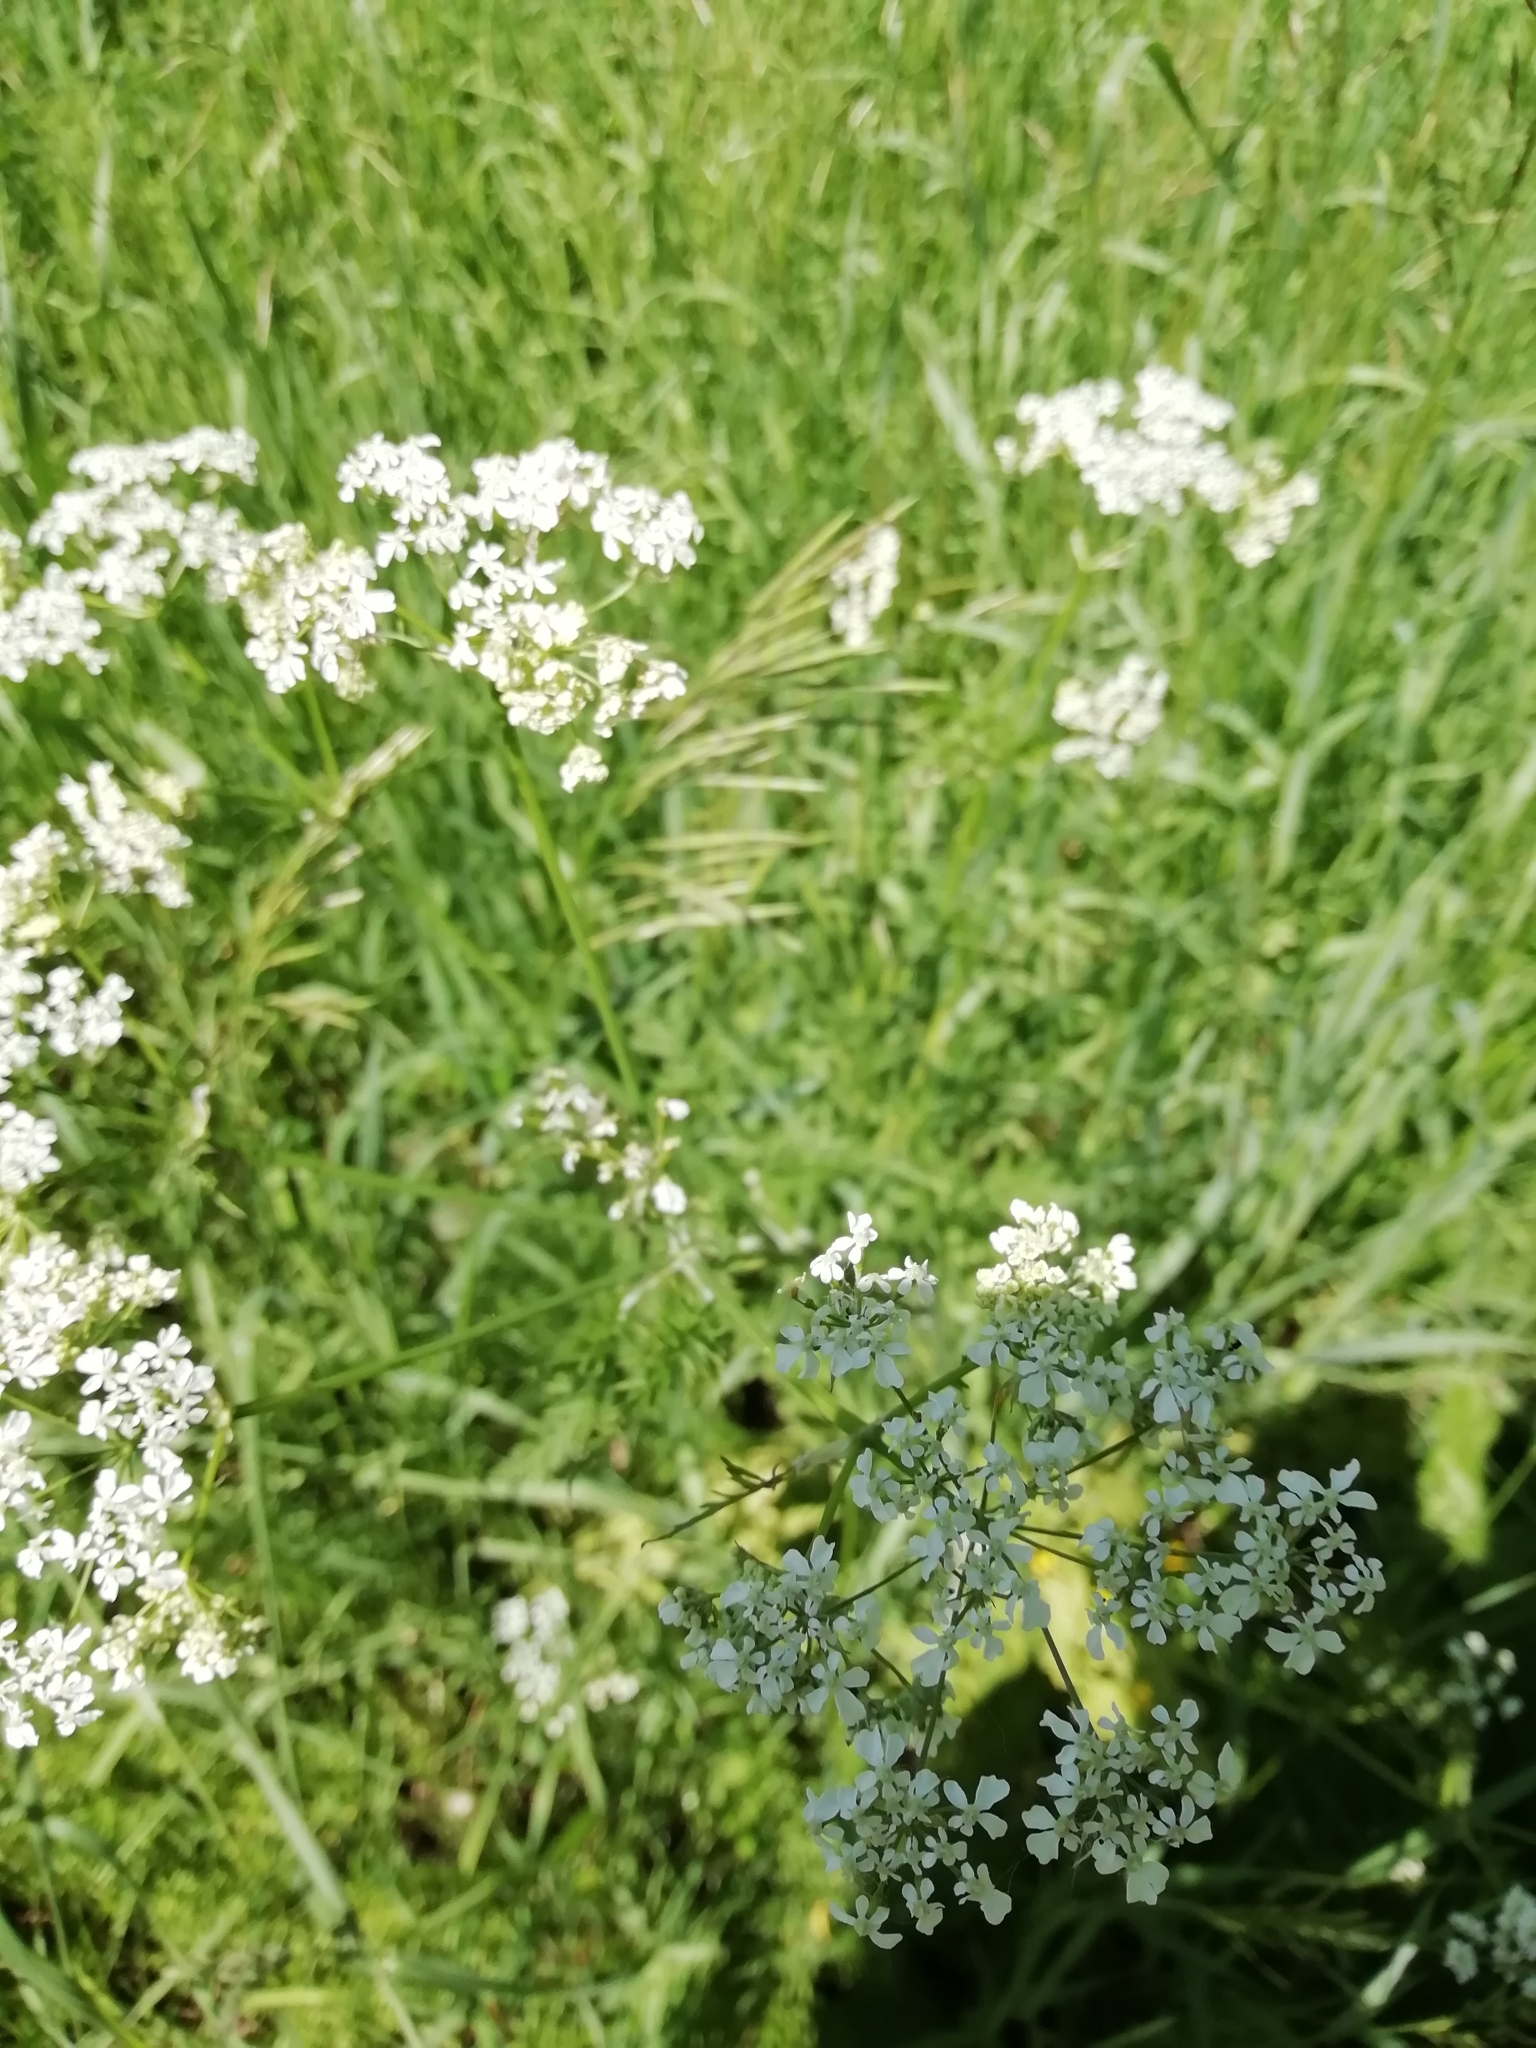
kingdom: Plantae
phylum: Tracheophyta
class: Magnoliopsida
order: Apiales
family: Apiaceae
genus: Anthriscus
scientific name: Anthriscus sylvestris
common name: Cow parsley
